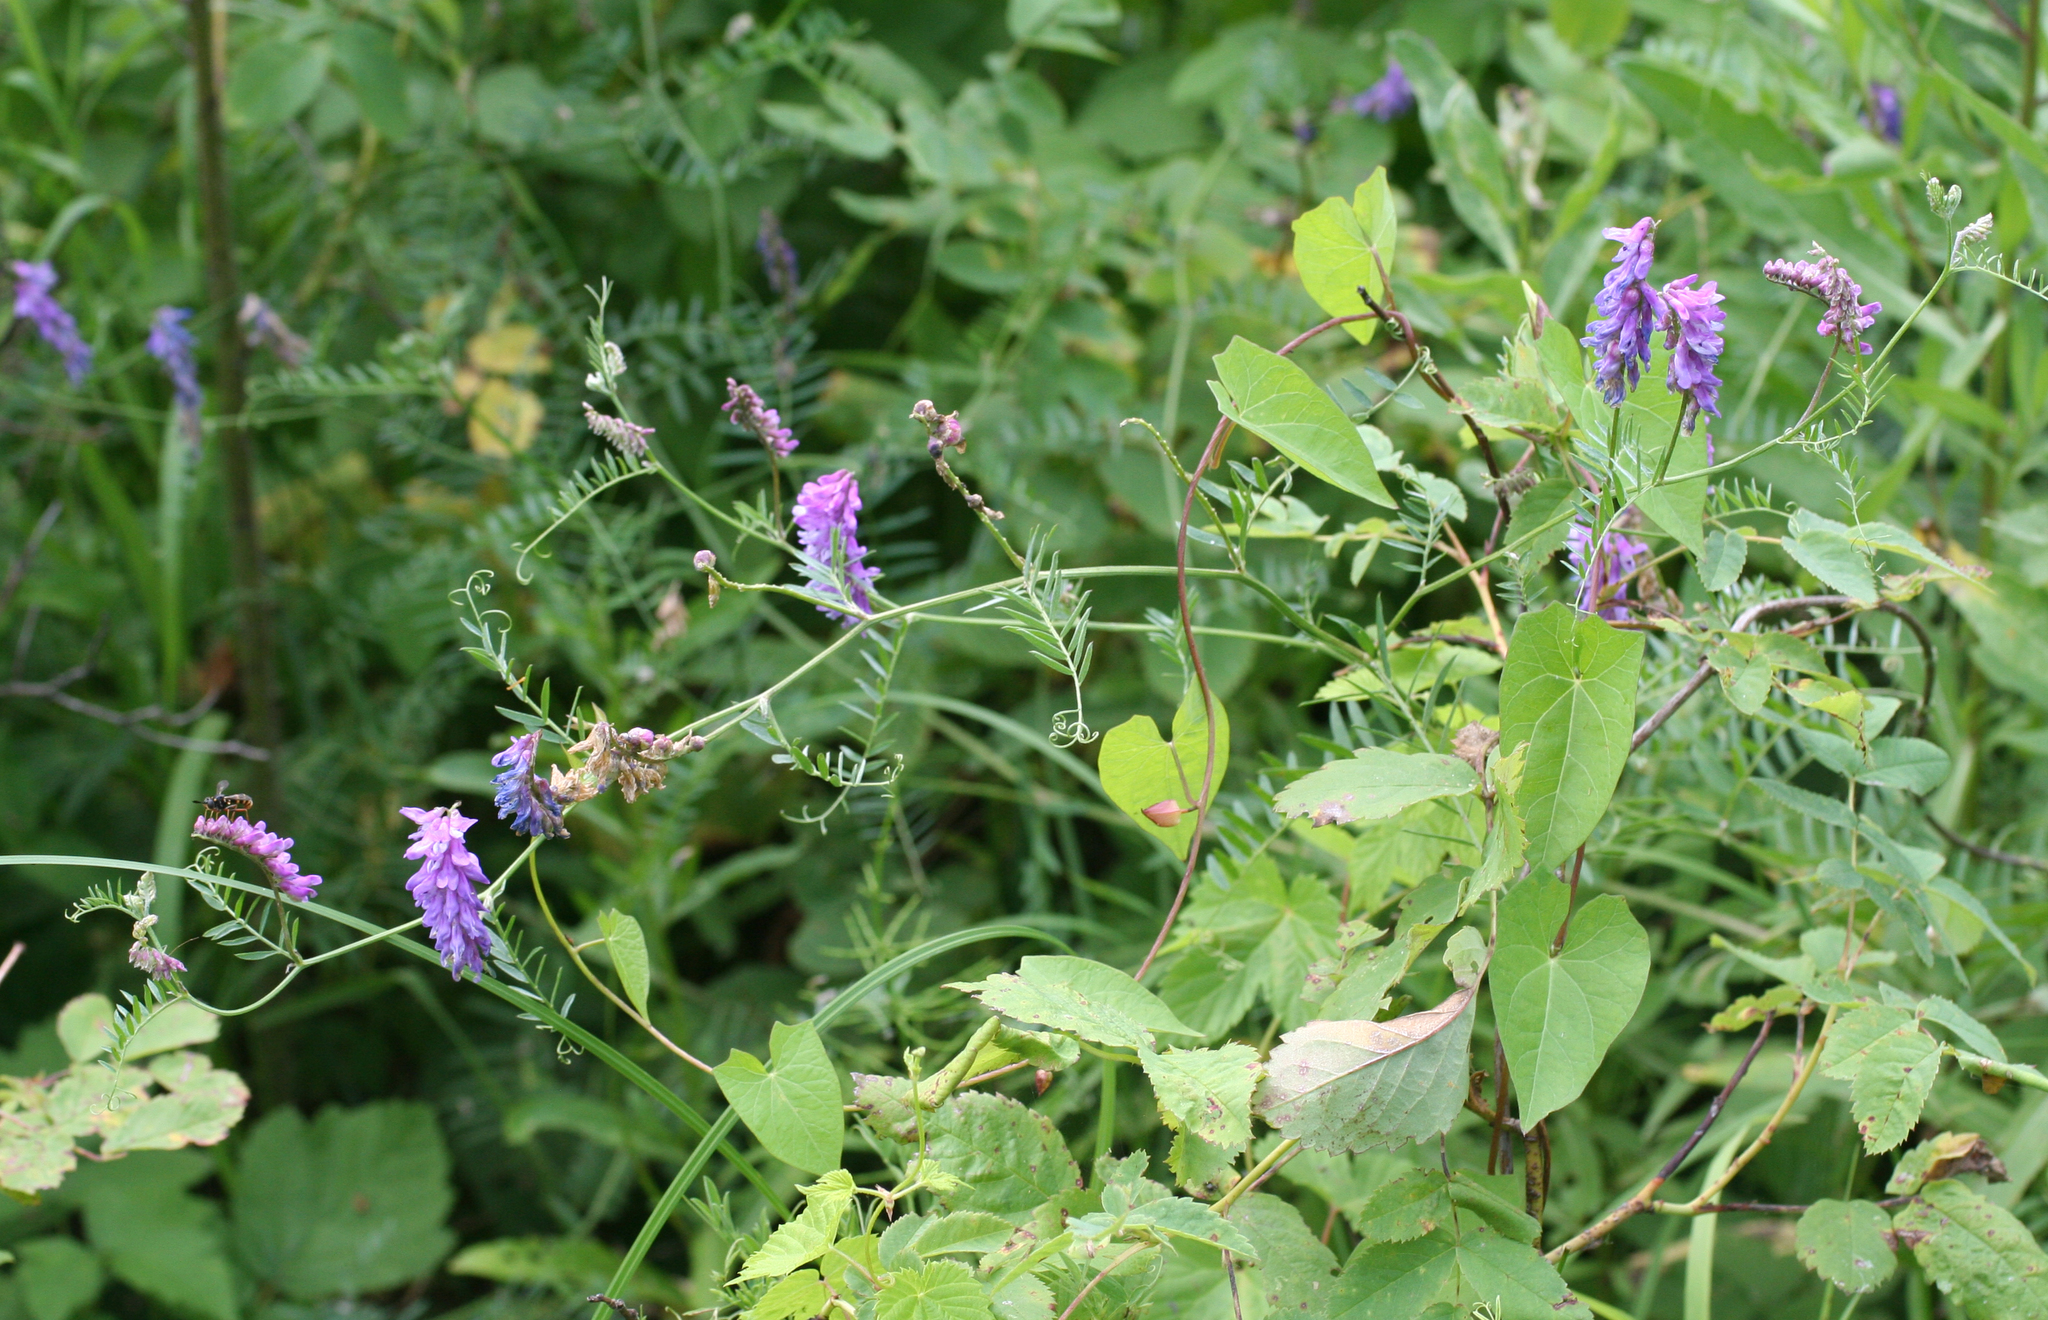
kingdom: Plantae
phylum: Tracheophyta
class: Magnoliopsida
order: Fabales
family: Fabaceae
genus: Vicia
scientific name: Vicia cracca
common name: Bird vetch
